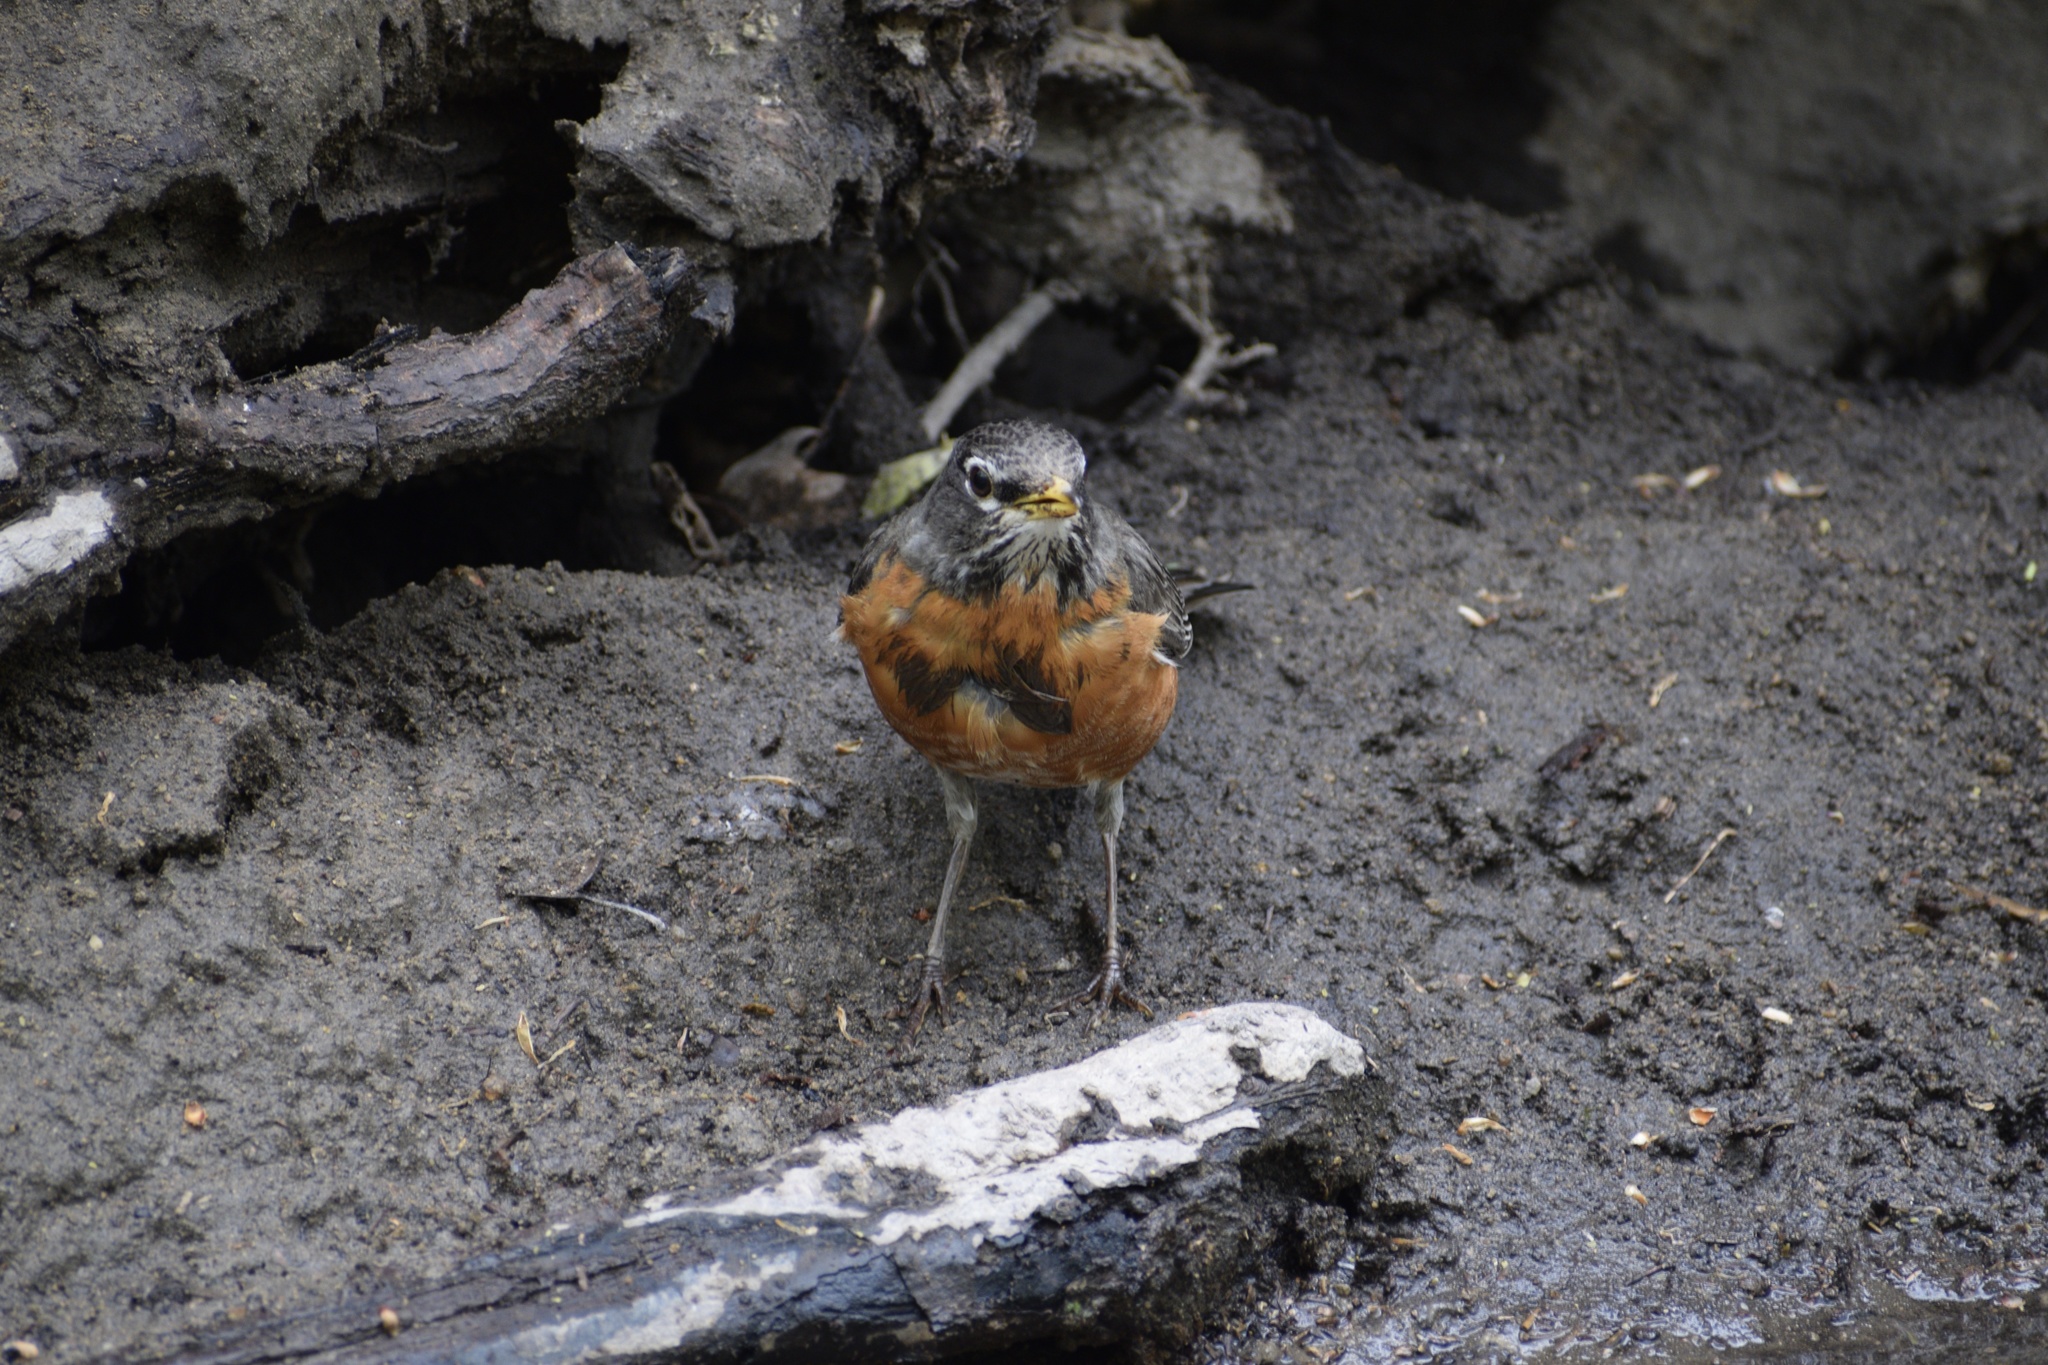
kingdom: Animalia
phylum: Chordata
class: Aves
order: Passeriformes
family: Turdidae
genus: Turdus
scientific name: Turdus migratorius
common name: American robin
